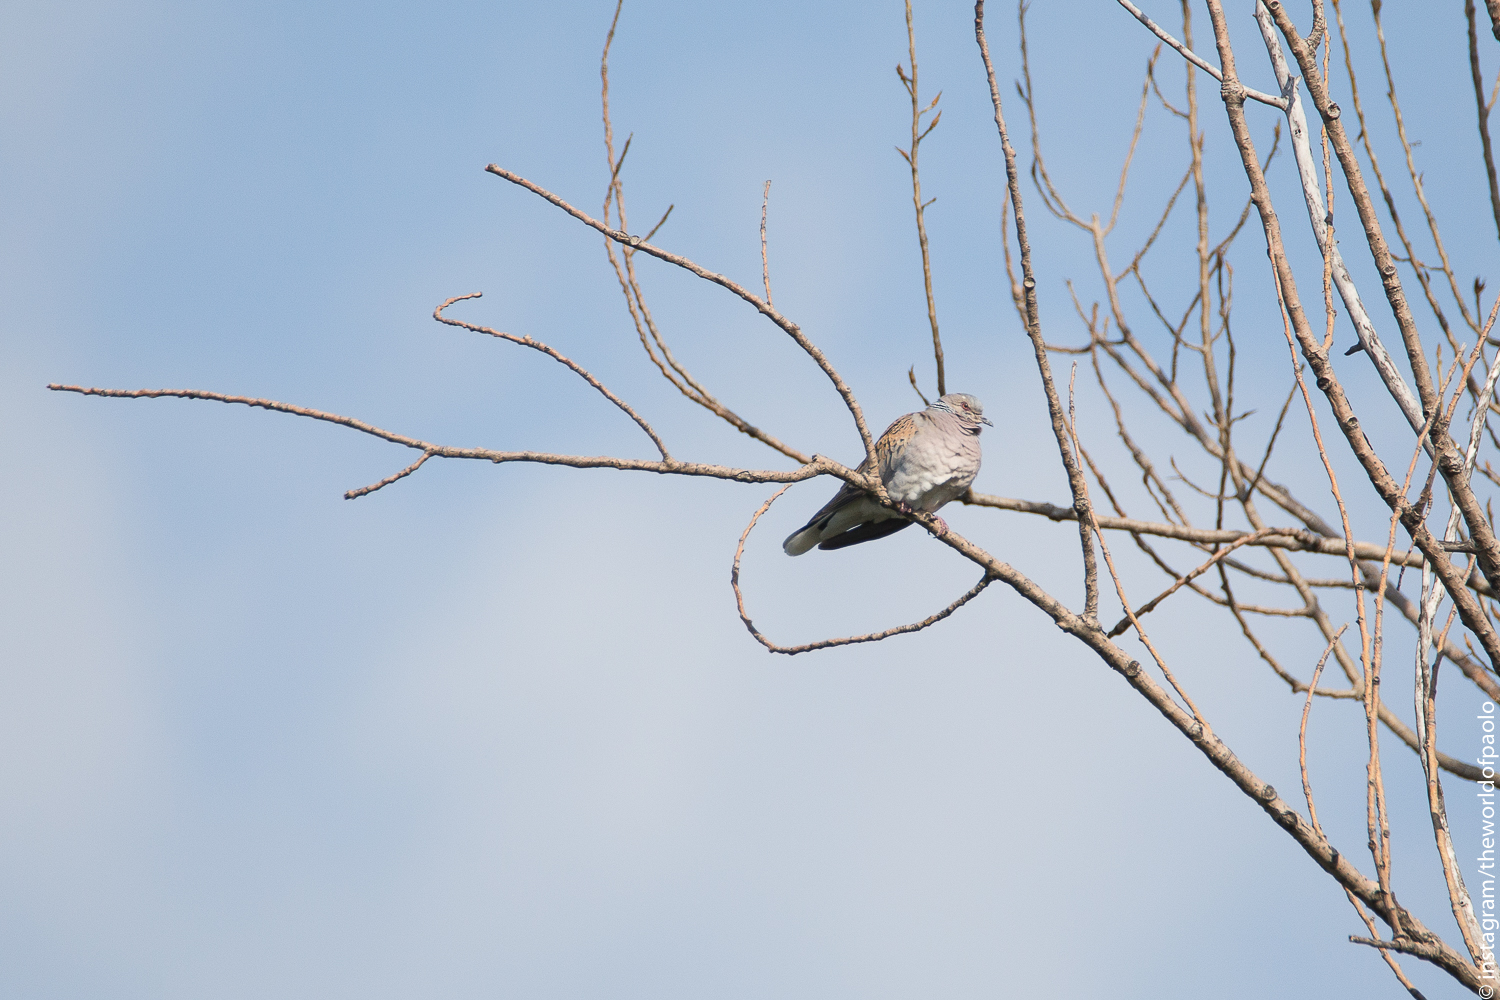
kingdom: Animalia
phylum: Chordata
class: Aves
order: Columbiformes
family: Columbidae
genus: Streptopelia
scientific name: Streptopelia turtur
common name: European turtle dove
